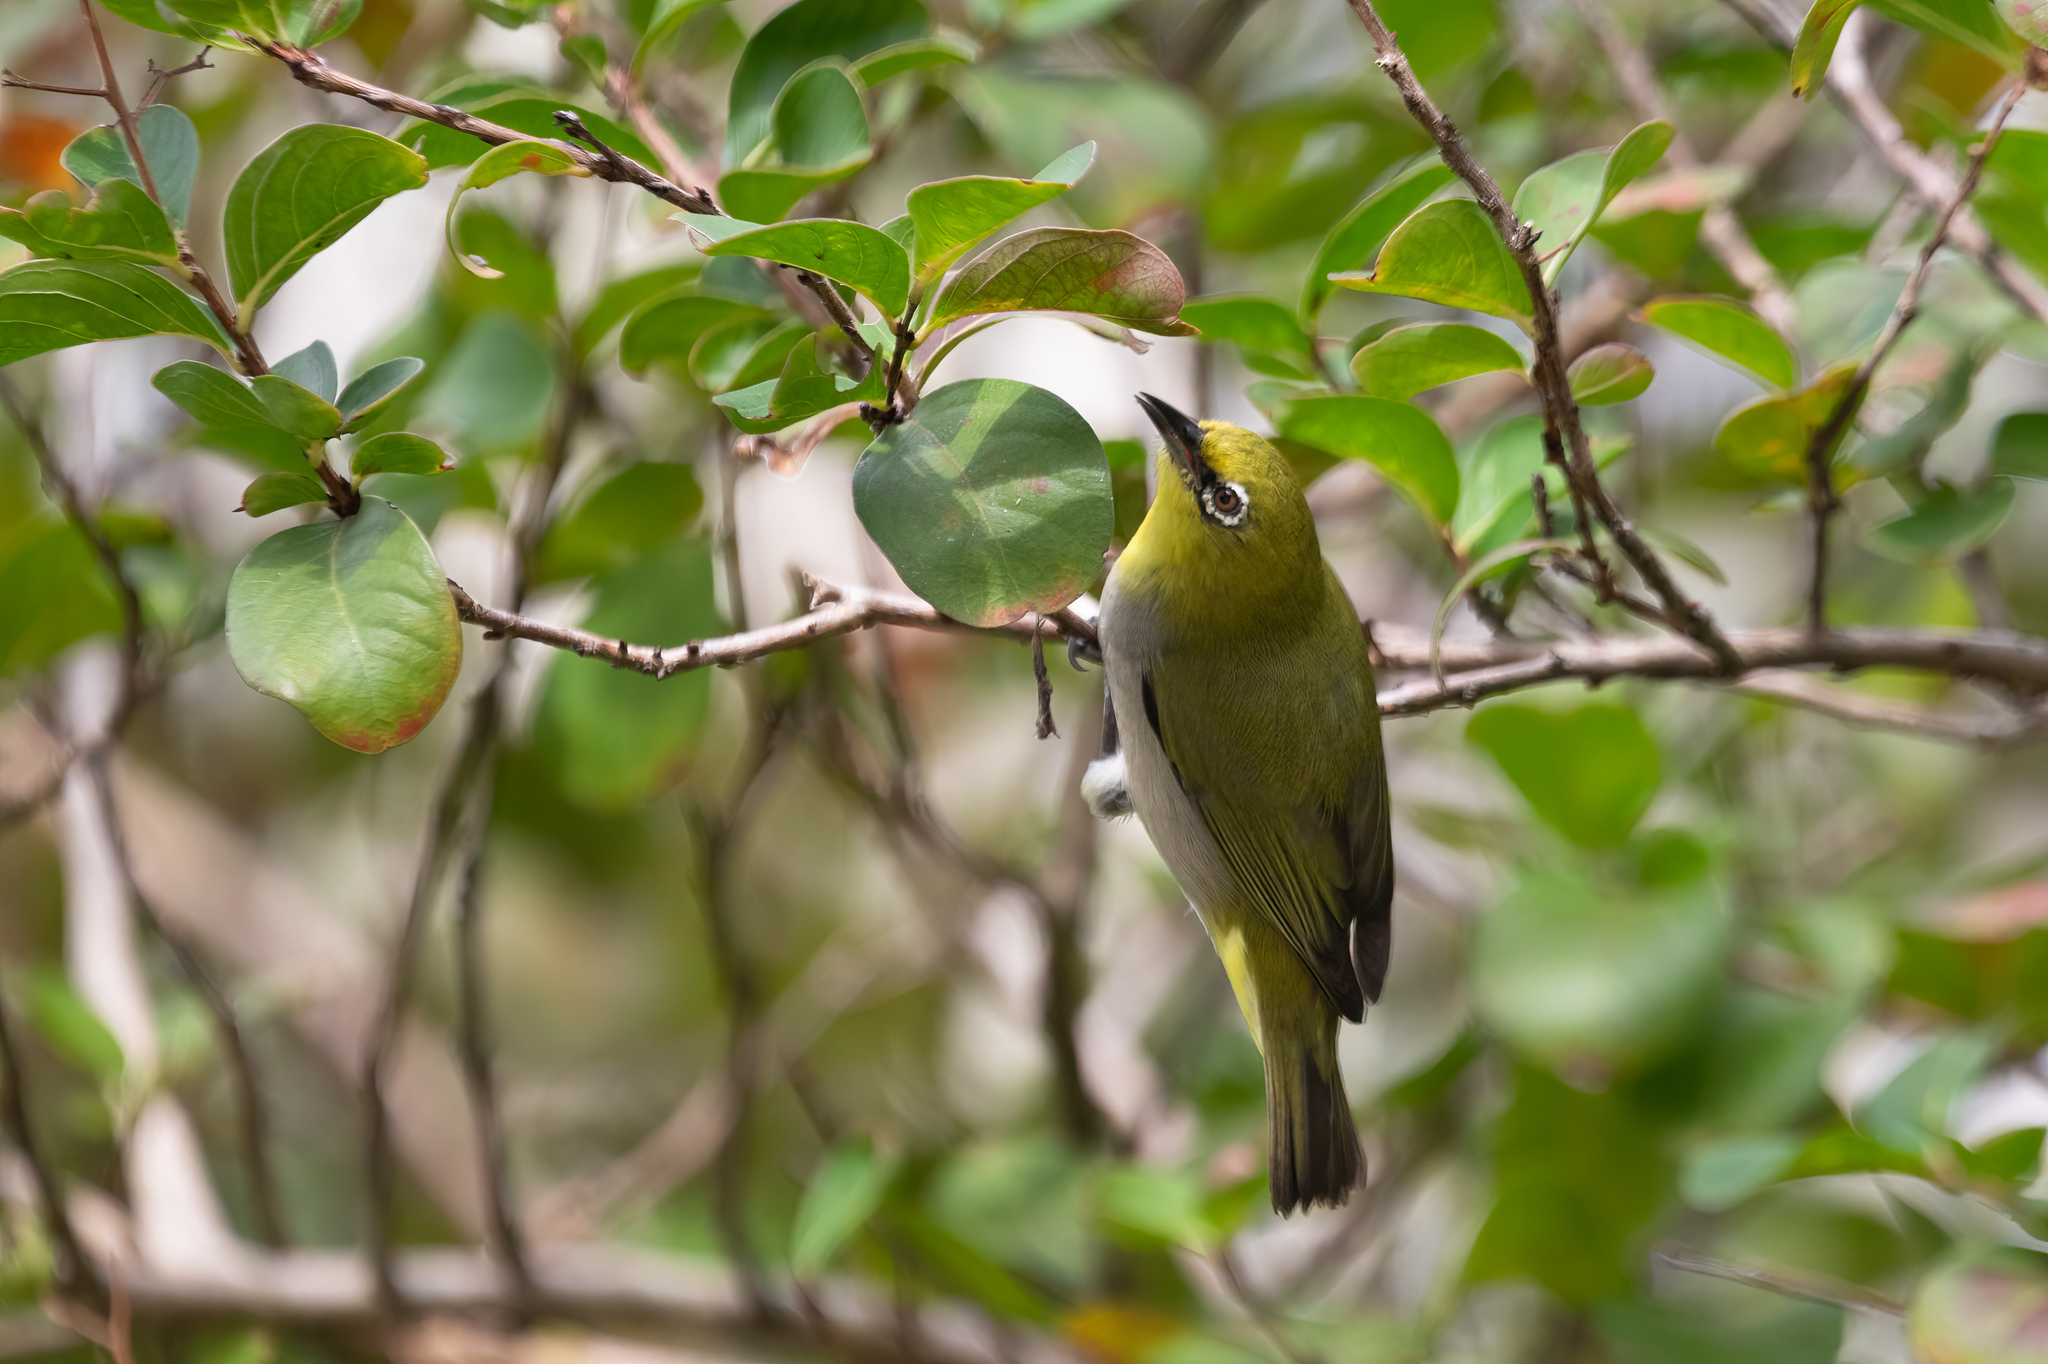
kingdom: Animalia
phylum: Chordata
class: Aves
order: Passeriformes
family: Zosteropidae
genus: Zosterops
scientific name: Zosterops simplex
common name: Swinhoe's white-eye
